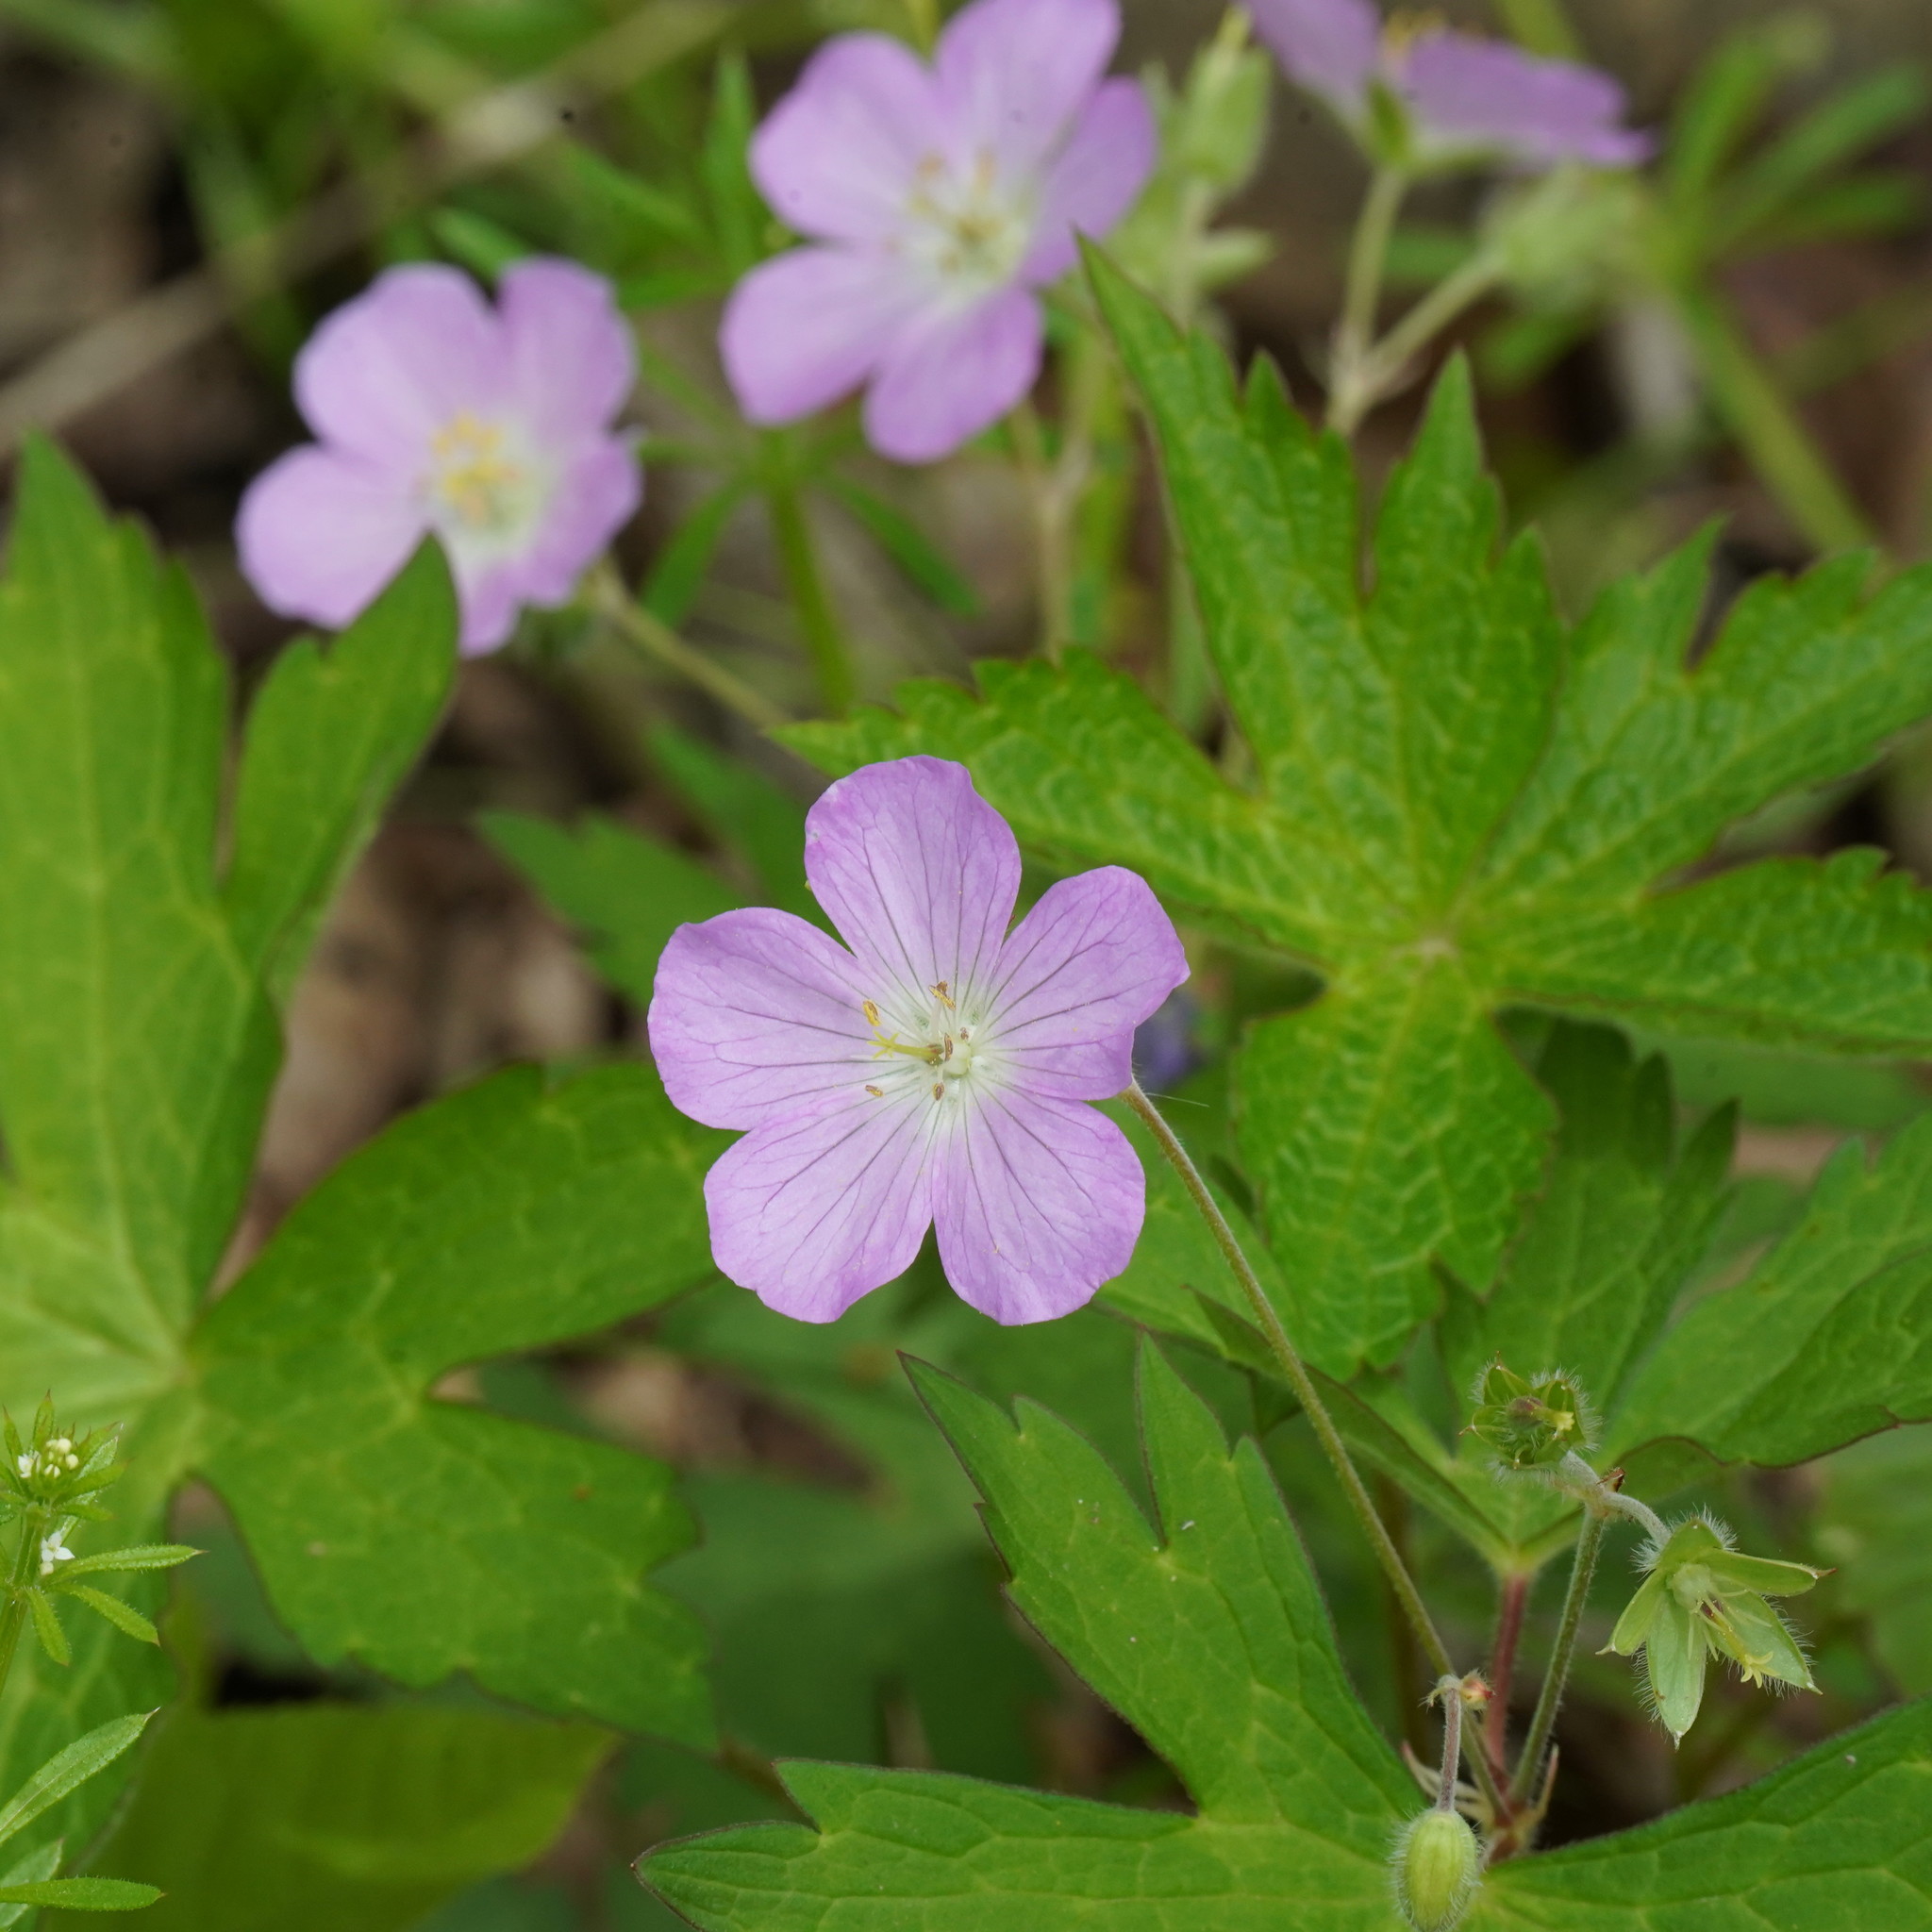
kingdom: Plantae
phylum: Tracheophyta
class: Magnoliopsida
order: Geraniales
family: Geraniaceae
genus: Geranium
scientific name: Geranium maculatum
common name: Spotted geranium
